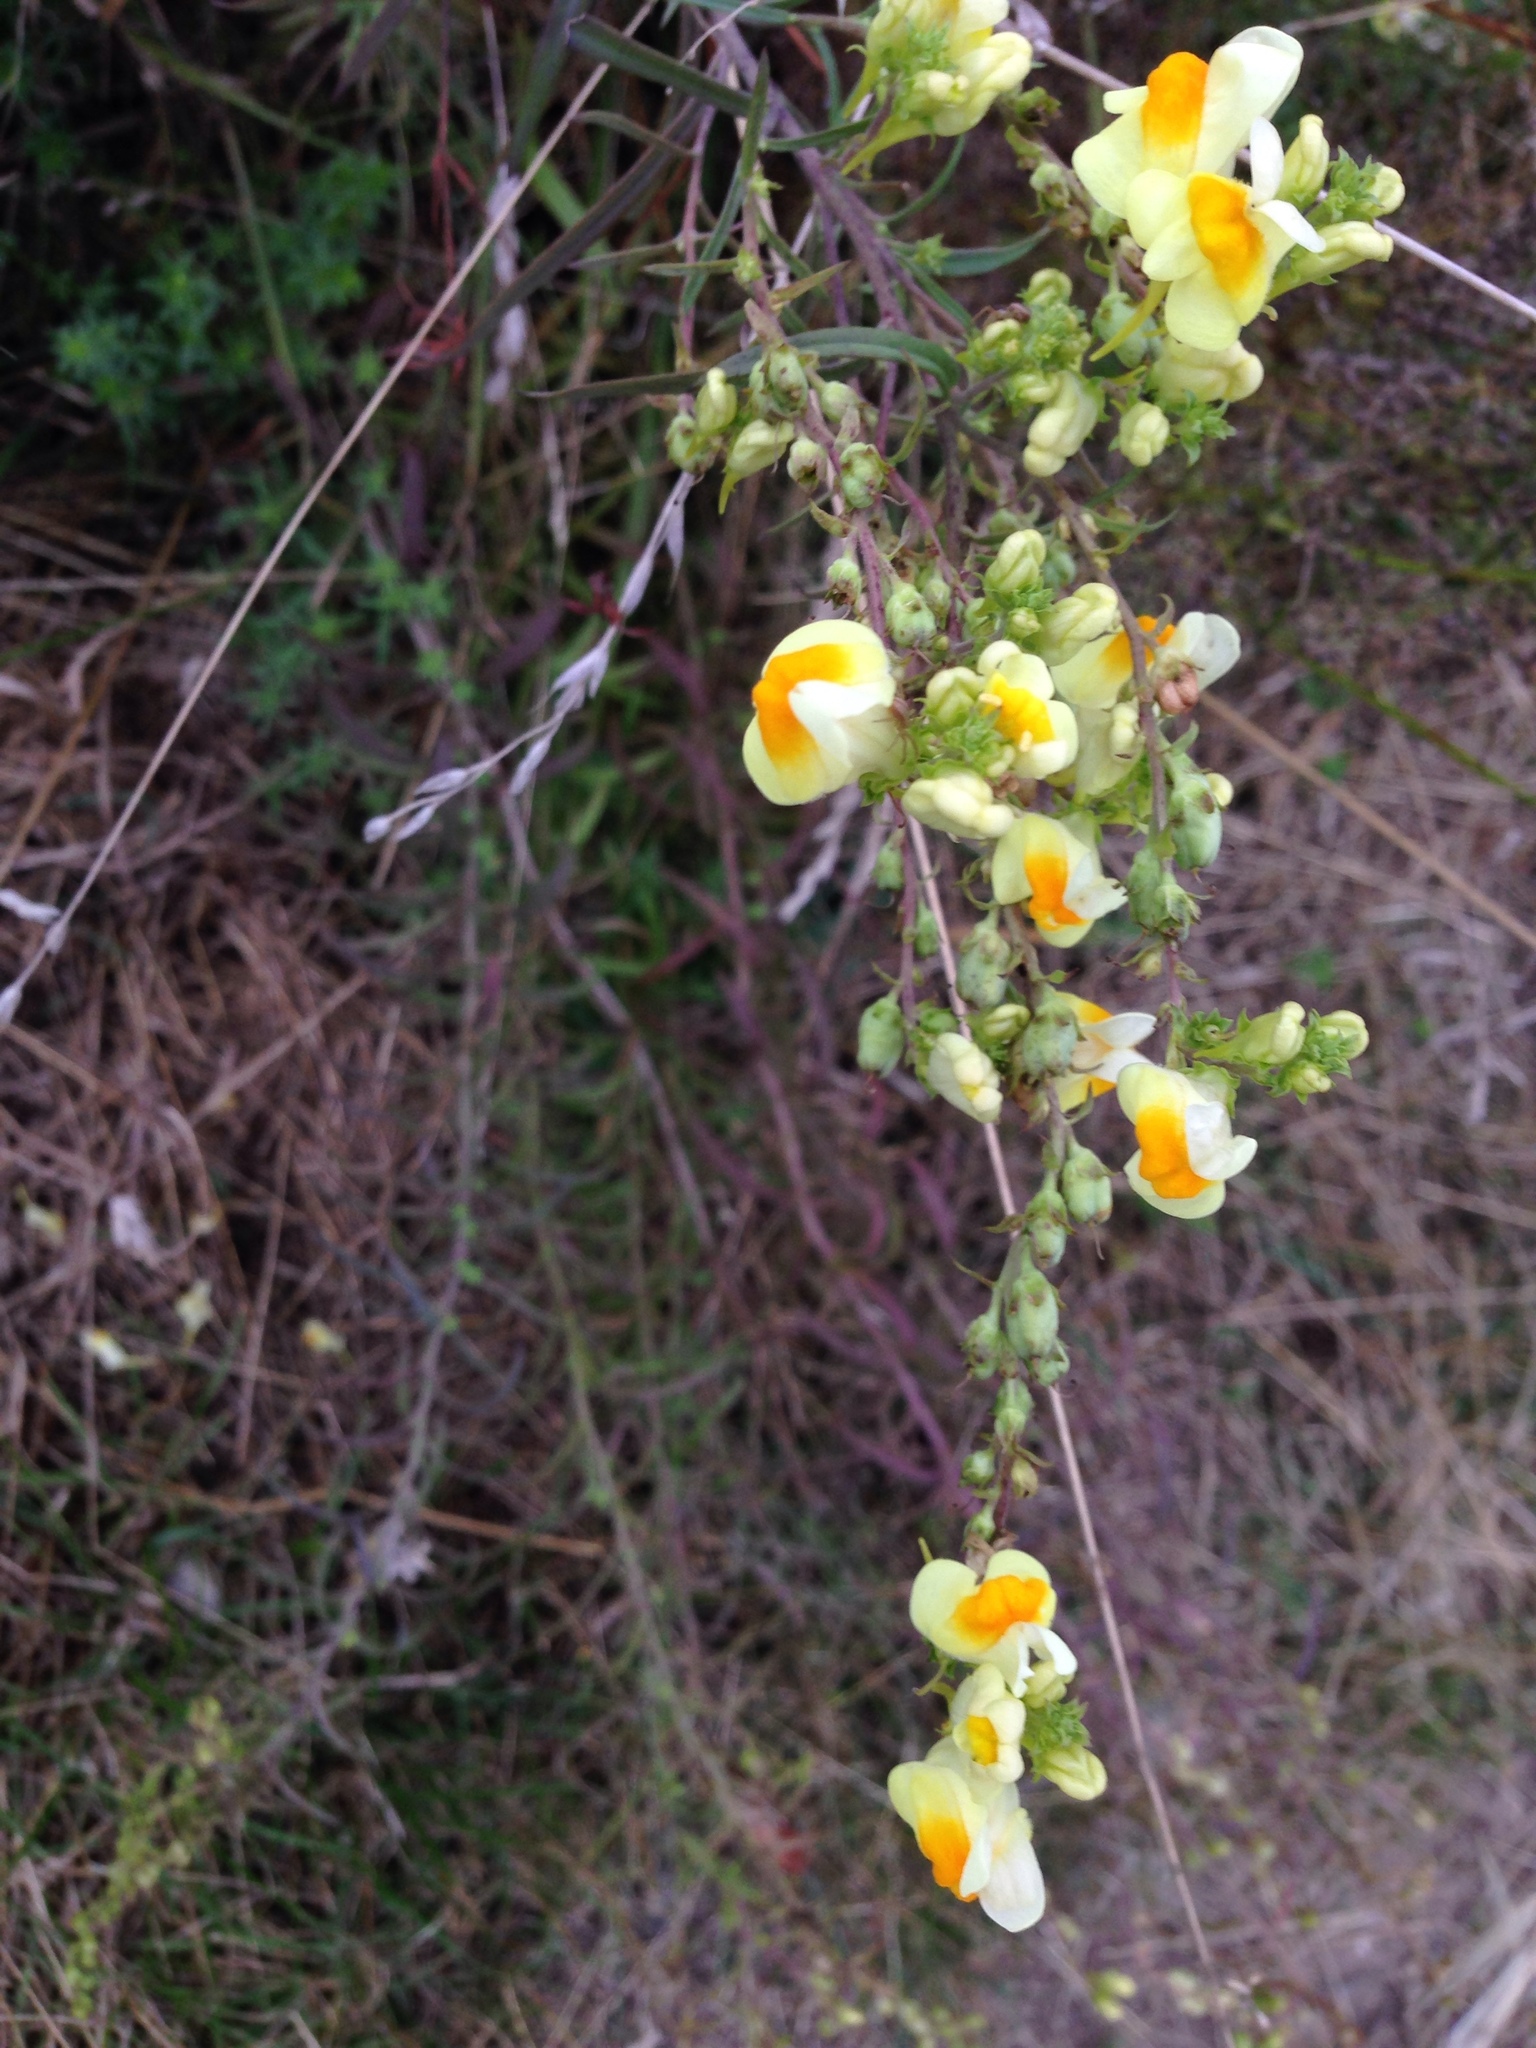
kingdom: Plantae
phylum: Tracheophyta
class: Magnoliopsida
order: Lamiales
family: Plantaginaceae
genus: Linaria
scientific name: Linaria vulgaris
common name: Butter and eggs
